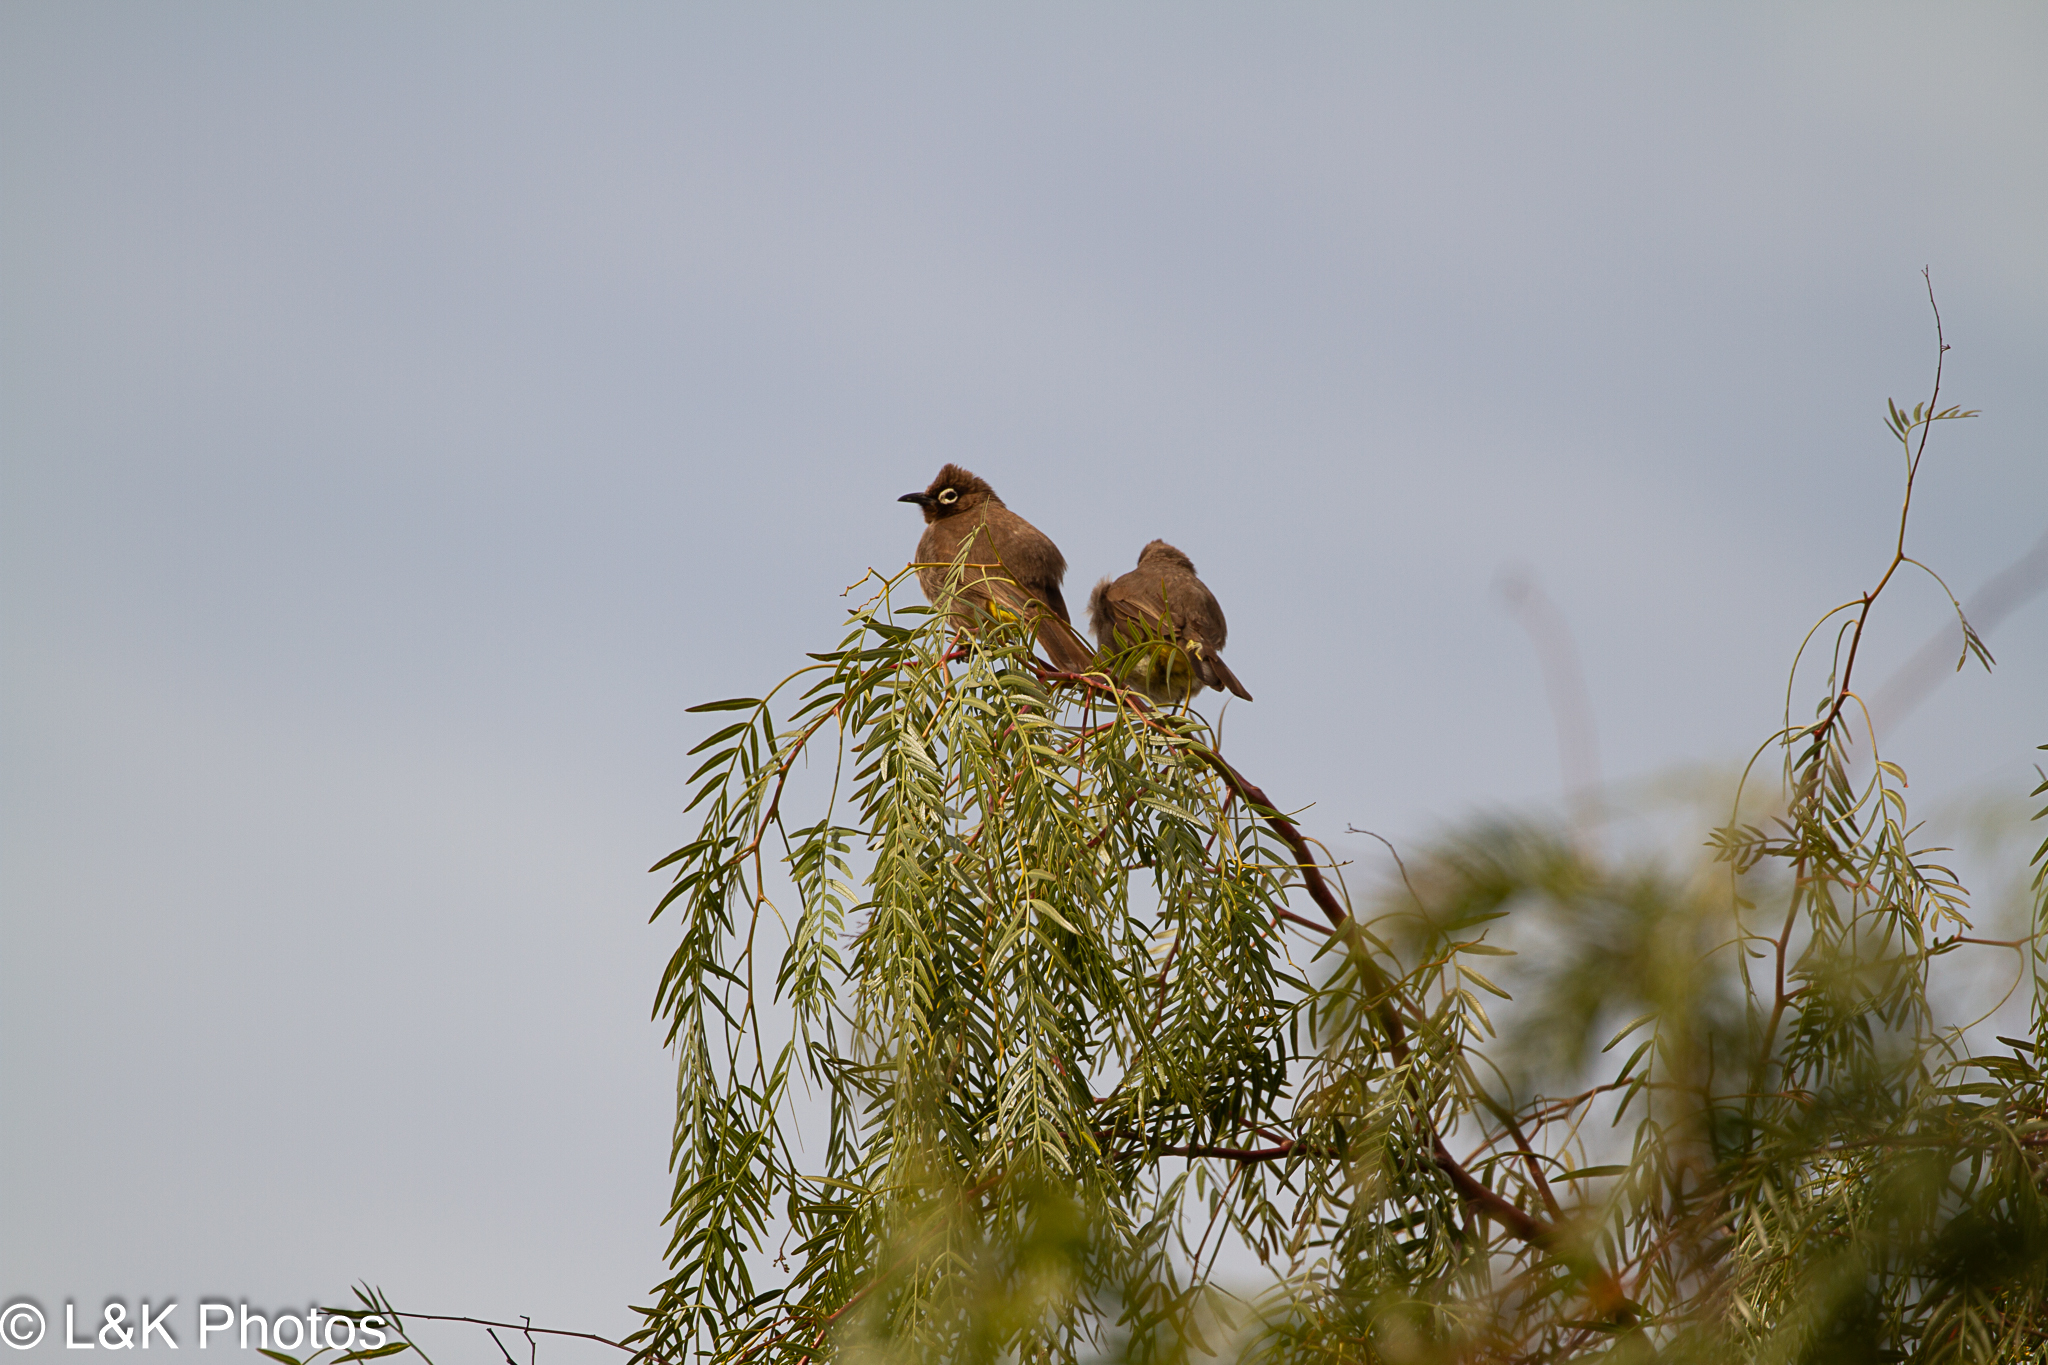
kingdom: Animalia
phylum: Chordata
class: Aves
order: Passeriformes
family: Pycnonotidae
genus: Pycnonotus
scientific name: Pycnonotus capensis
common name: Cape bulbul
